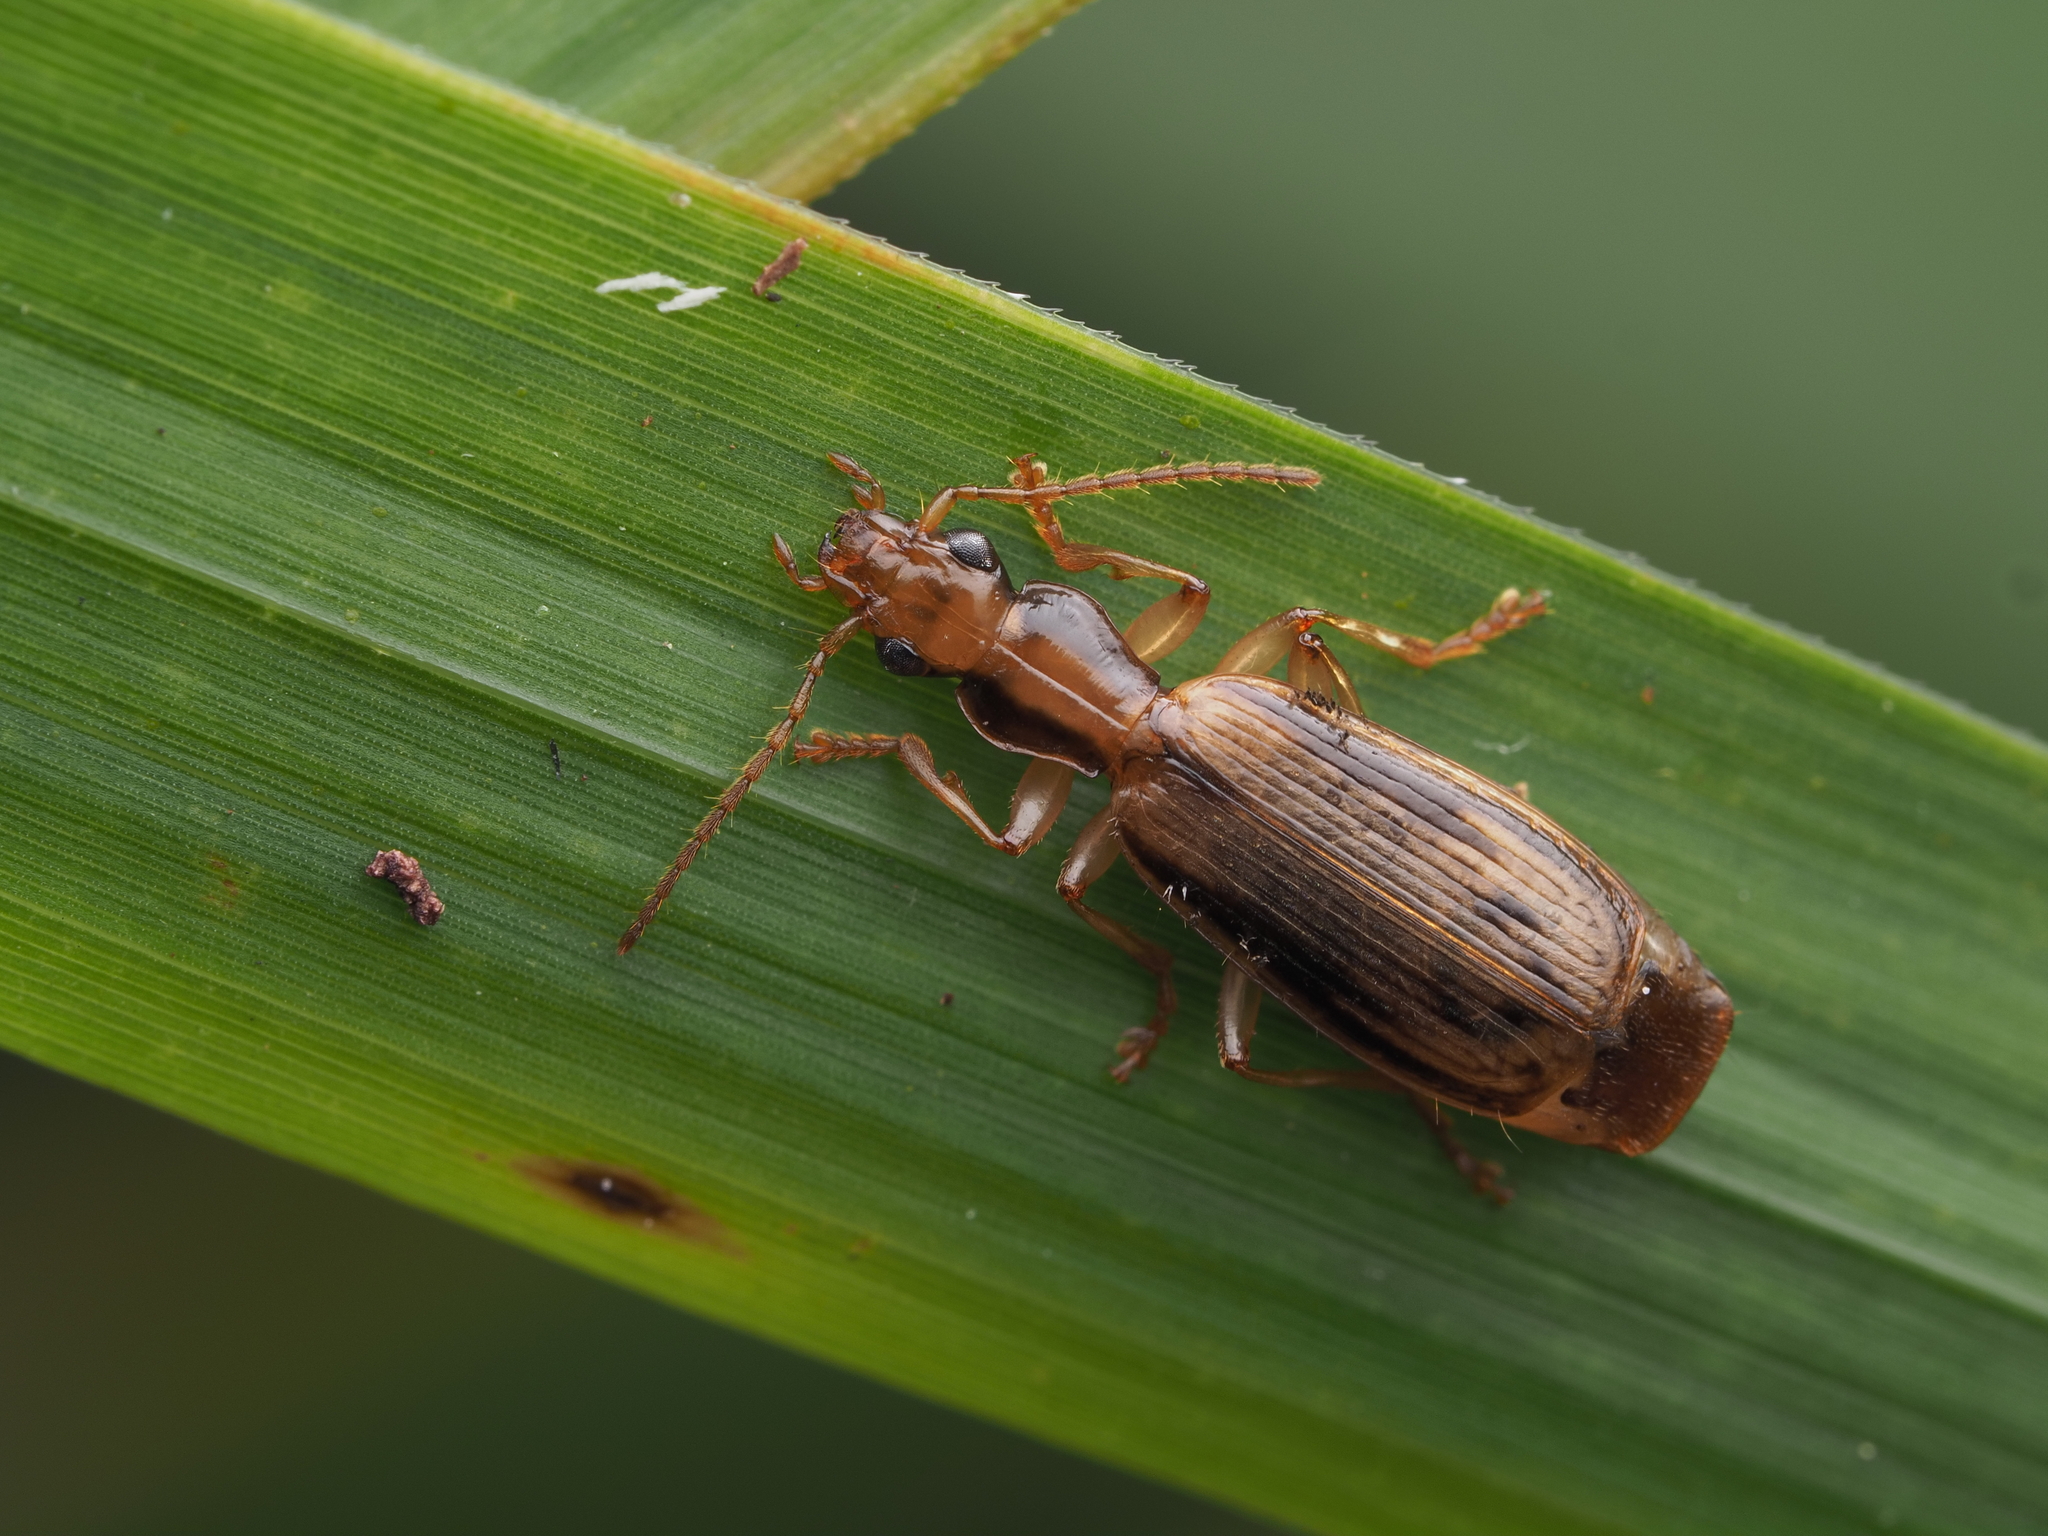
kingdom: Animalia
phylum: Arthropoda
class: Insecta
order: Coleoptera
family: Carabidae
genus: Demetrida
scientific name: Demetrida lineella
